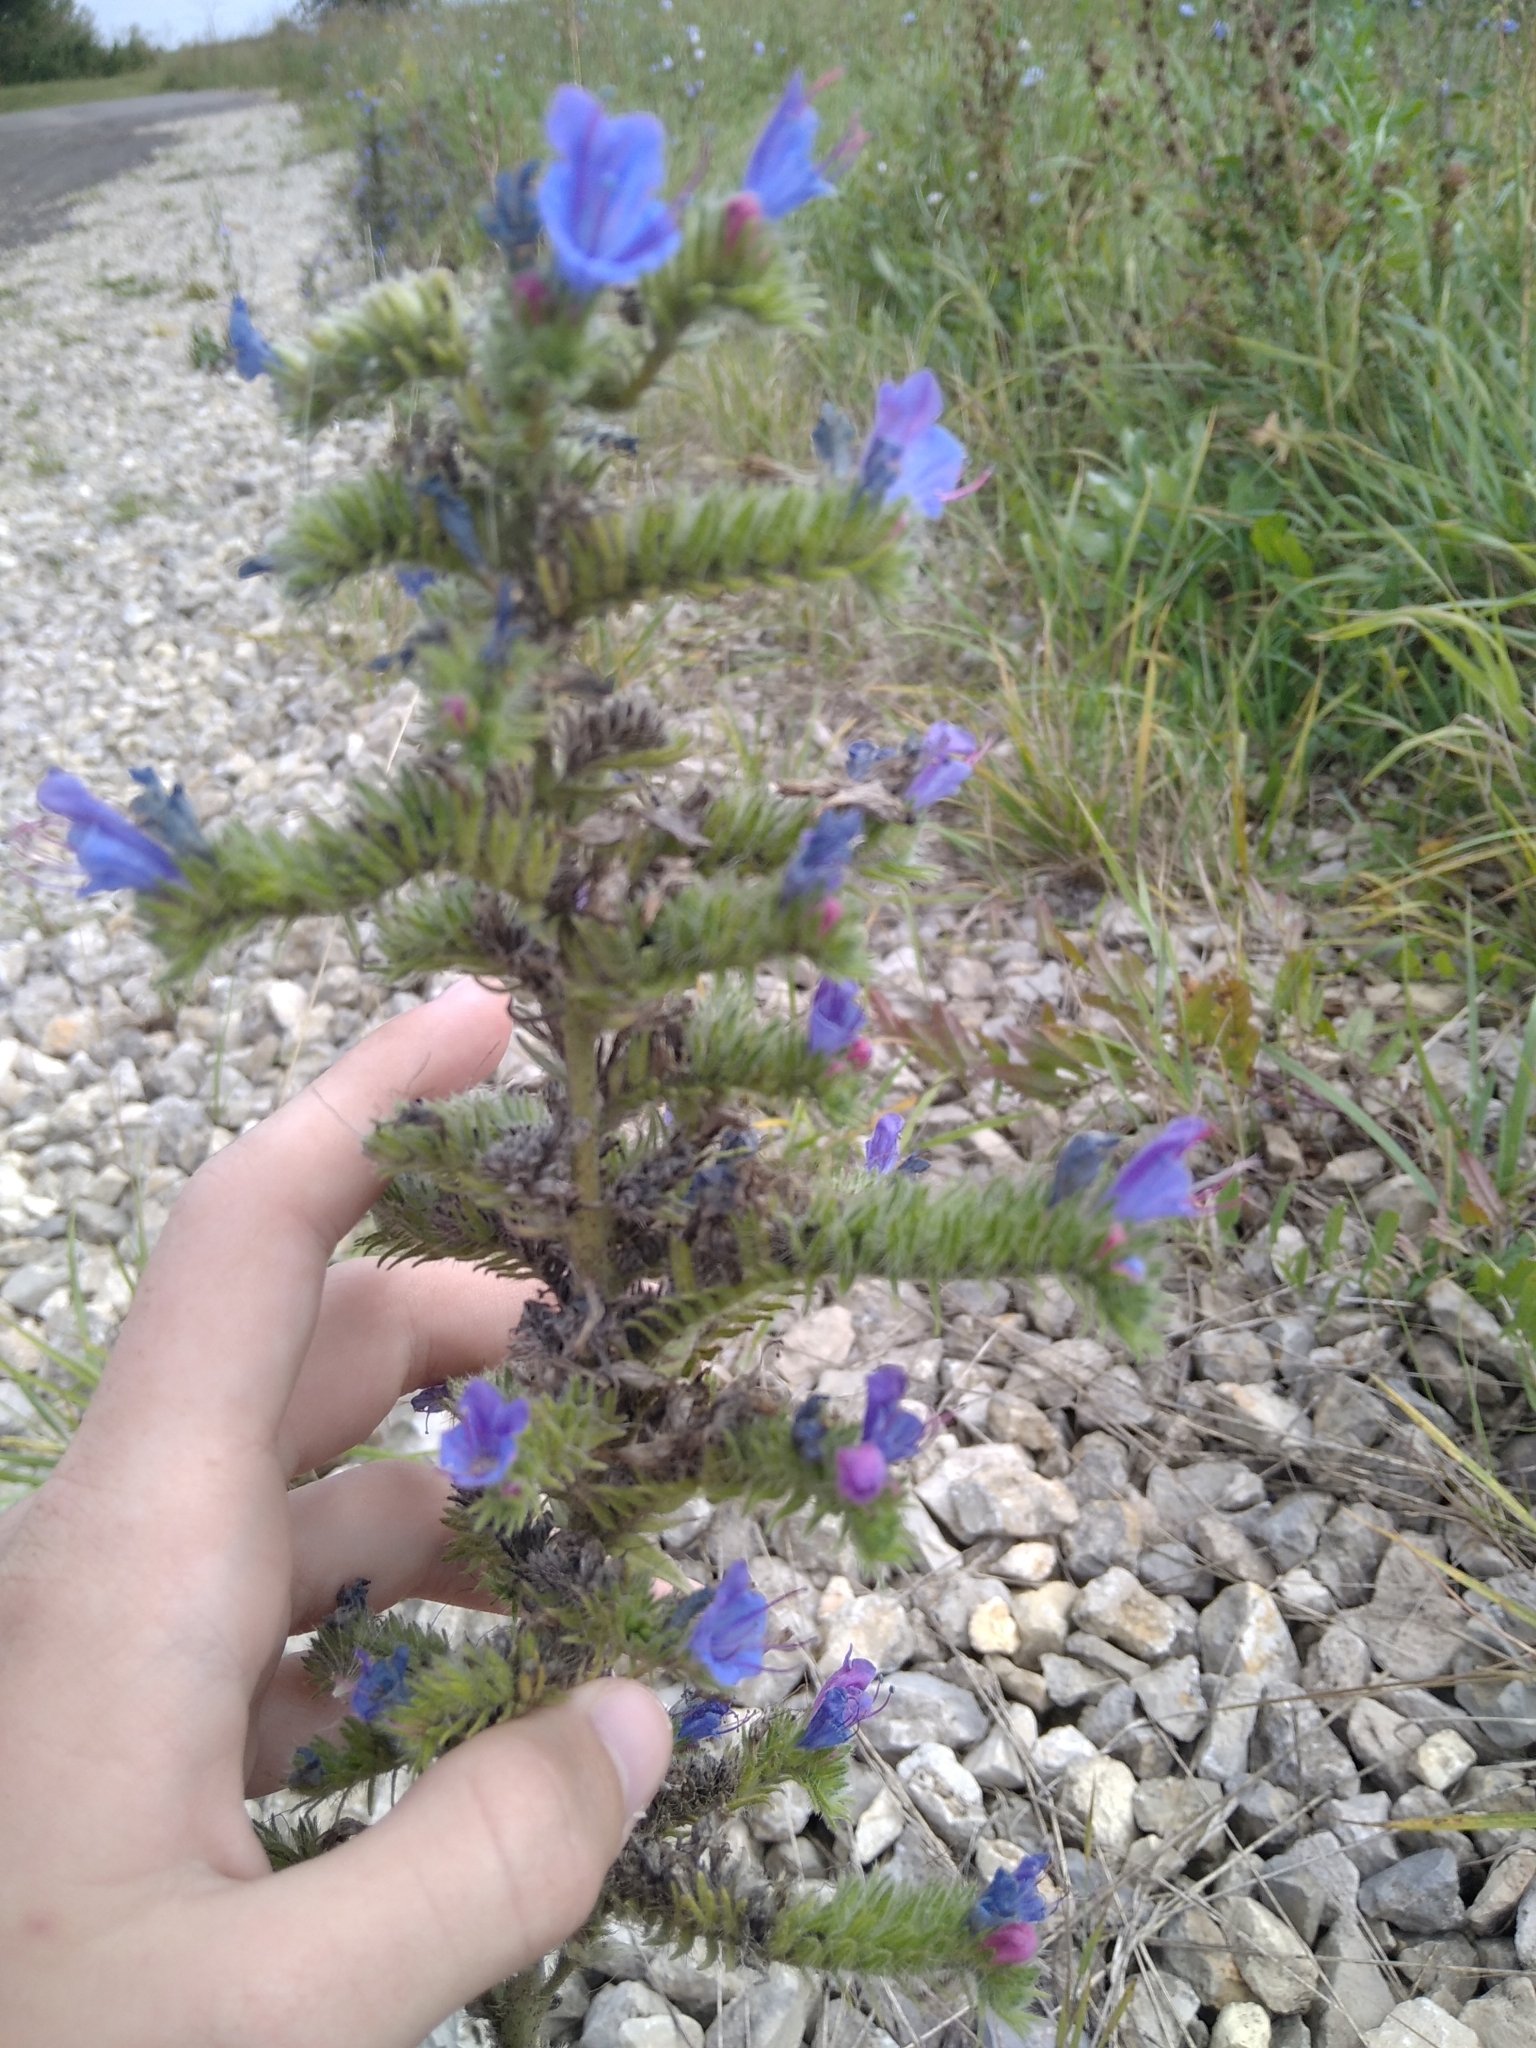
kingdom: Plantae
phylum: Tracheophyta
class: Magnoliopsida
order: Boraginales
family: Boraginaceae
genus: Echium
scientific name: Echium vulgare
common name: Common viper's bugloss
